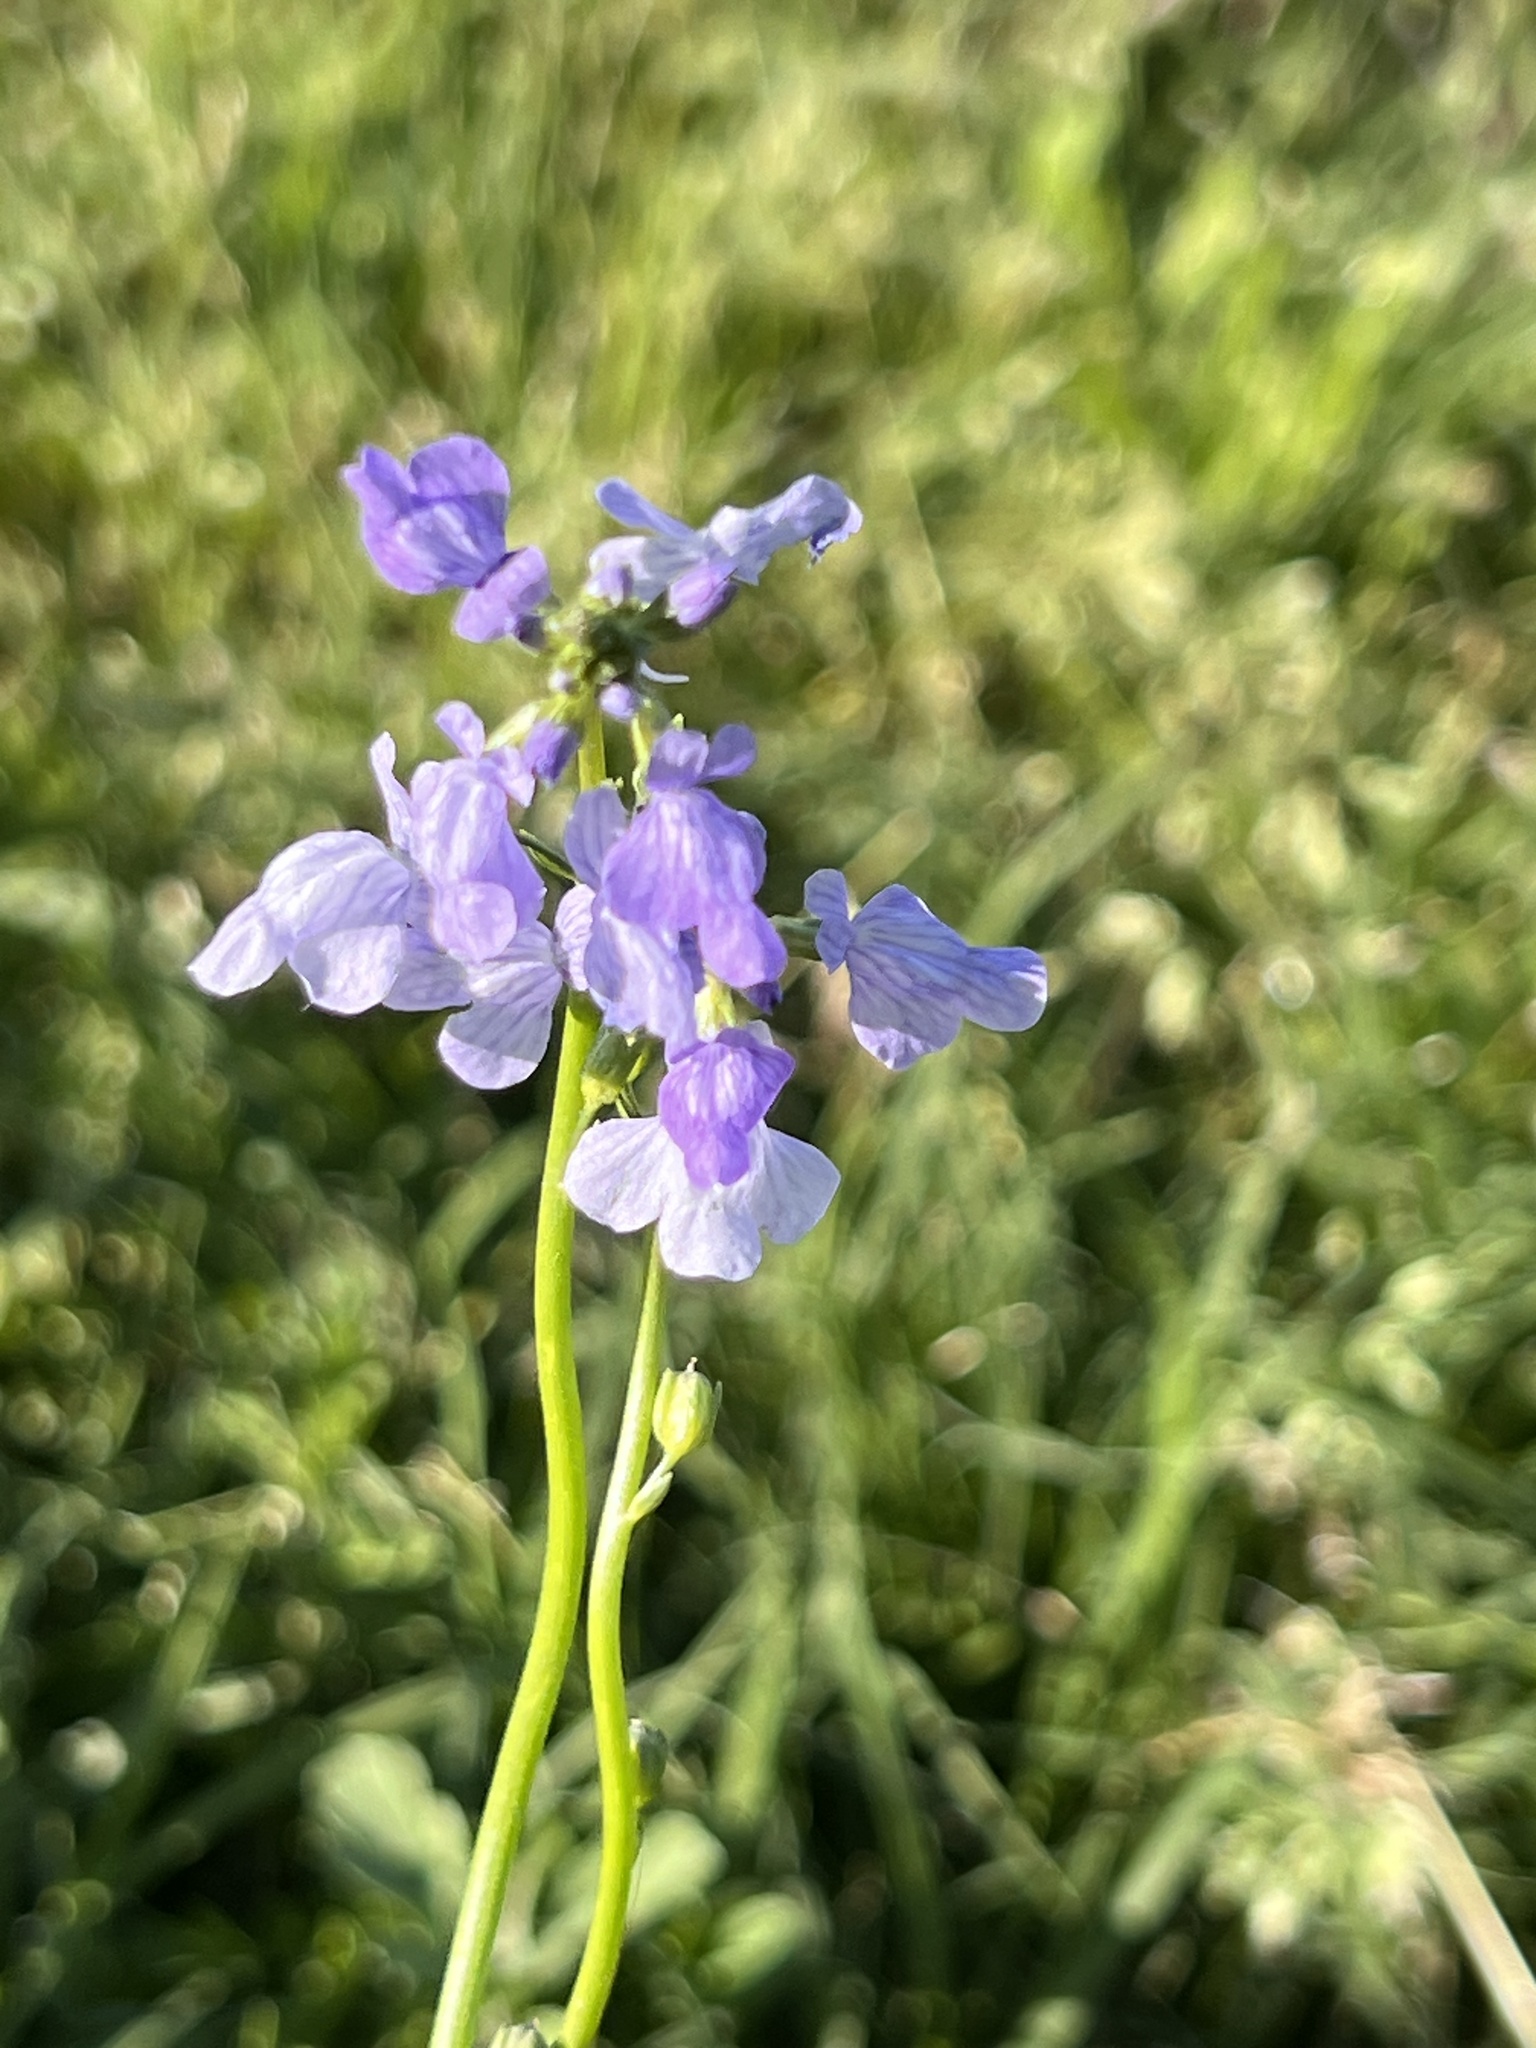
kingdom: Plantae
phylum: Tracheophyta
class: Magnoliopsida
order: Lamiales
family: Plantaginaceae
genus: Nuttallanthus
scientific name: Nuttallanthus texanus
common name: Texas toadflax
